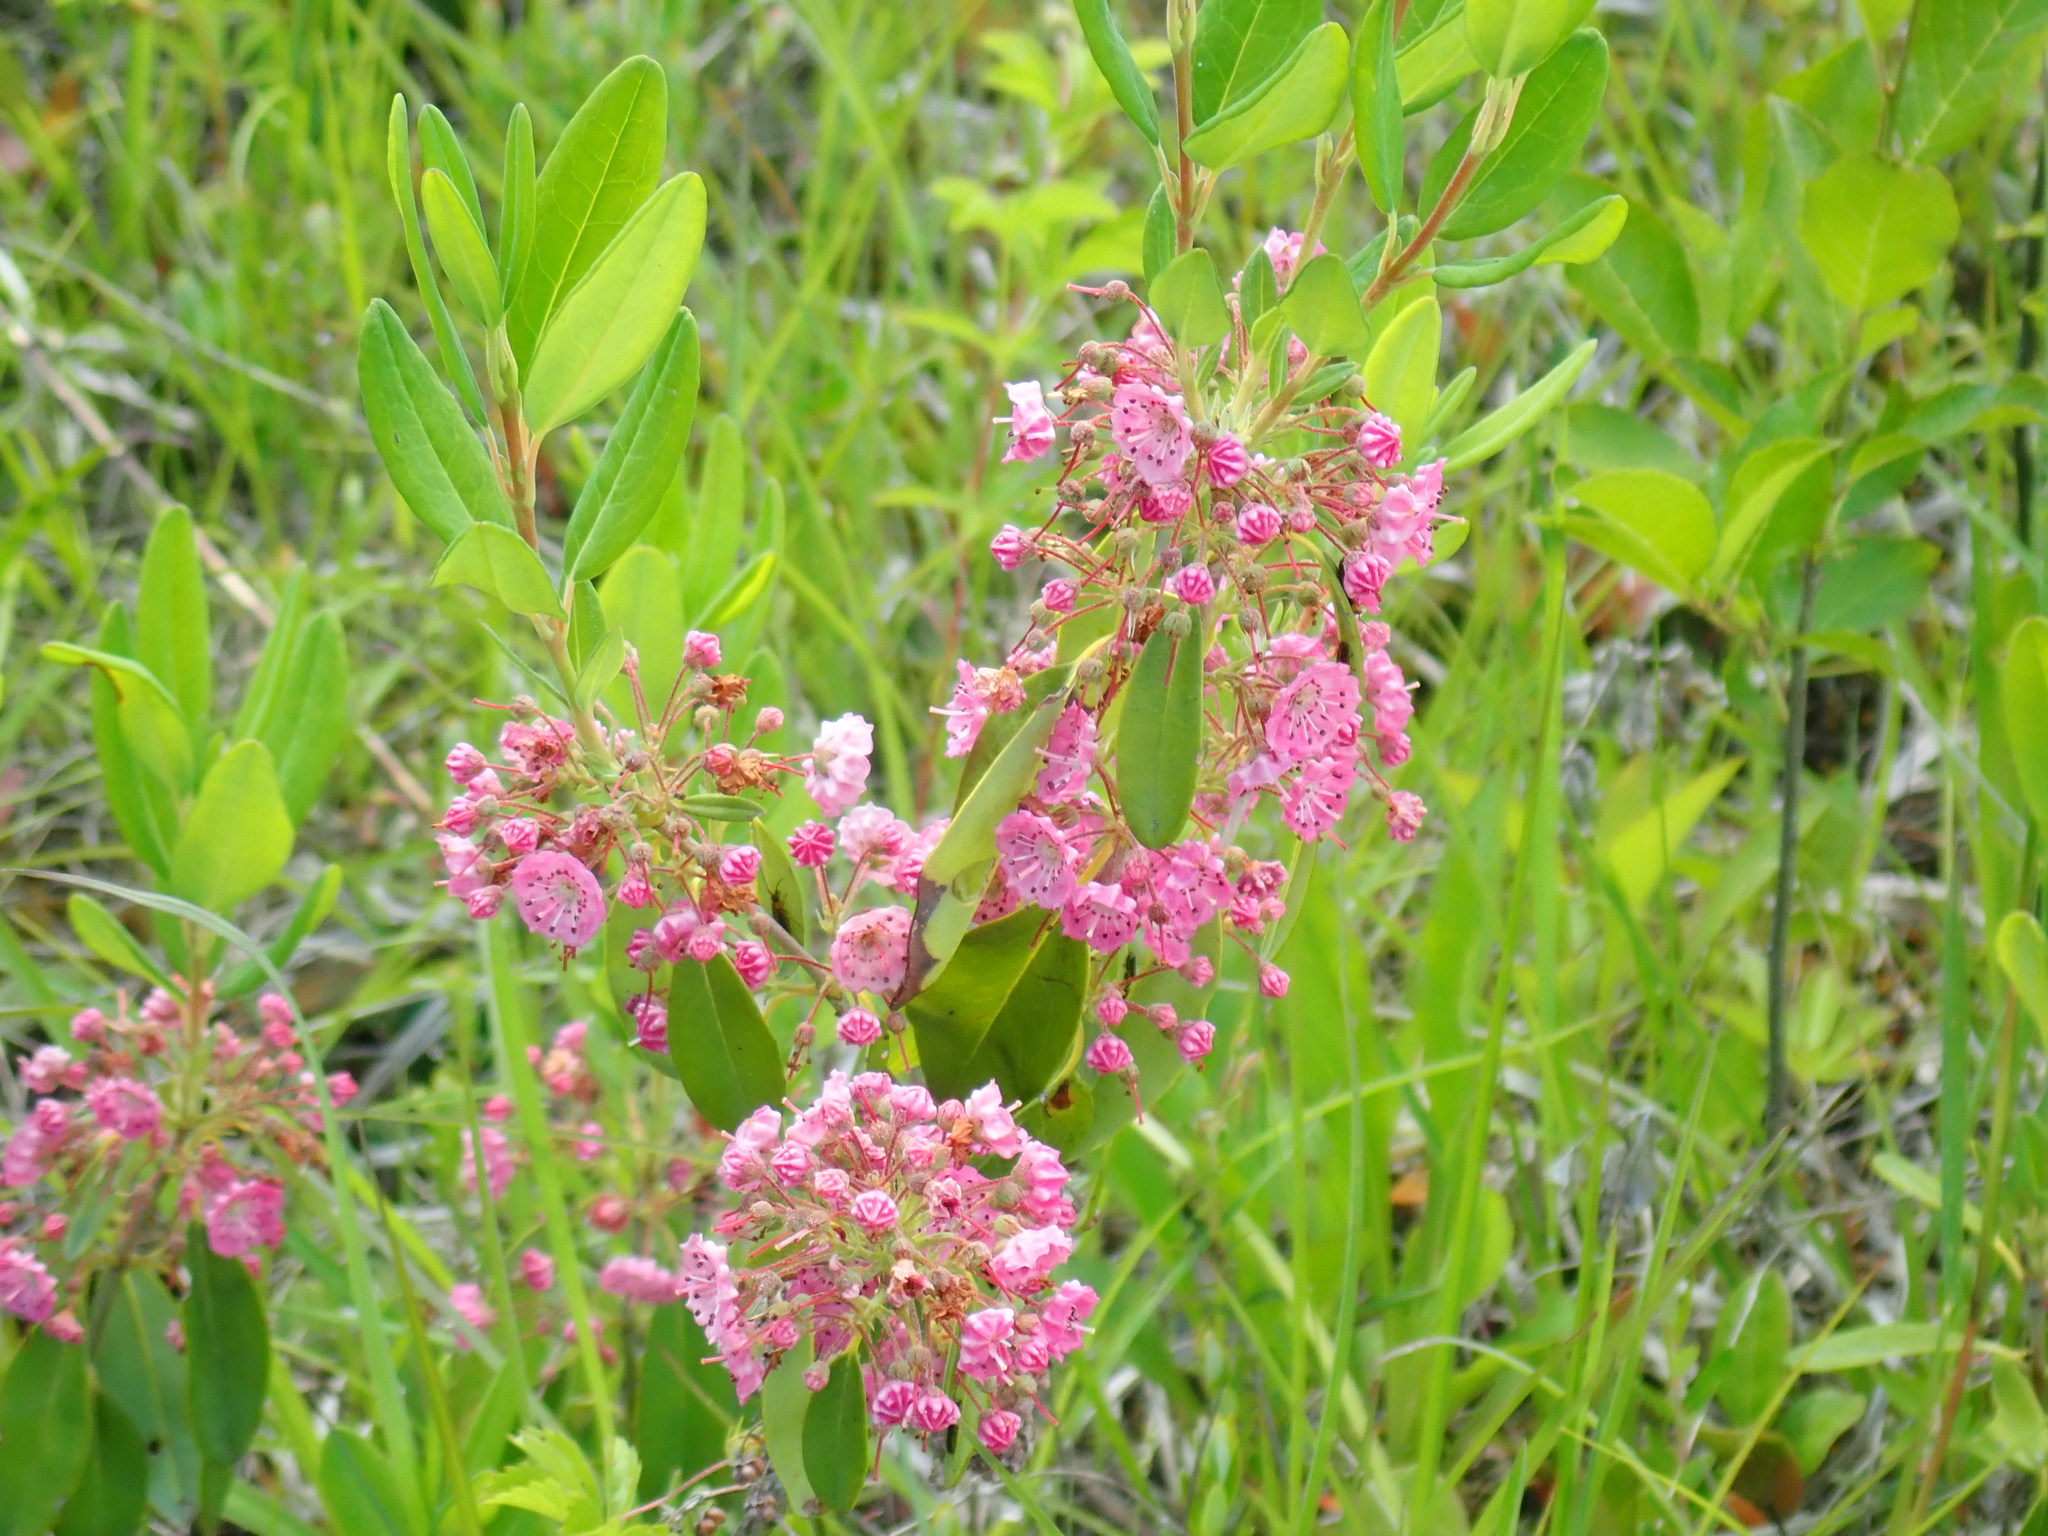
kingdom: Plantae
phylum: Tracheophyta
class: Magnoliopsida
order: Ericales
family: Ericaceae
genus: Kalmia
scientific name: Kalmia angustifolia
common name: Sheep-laurel
